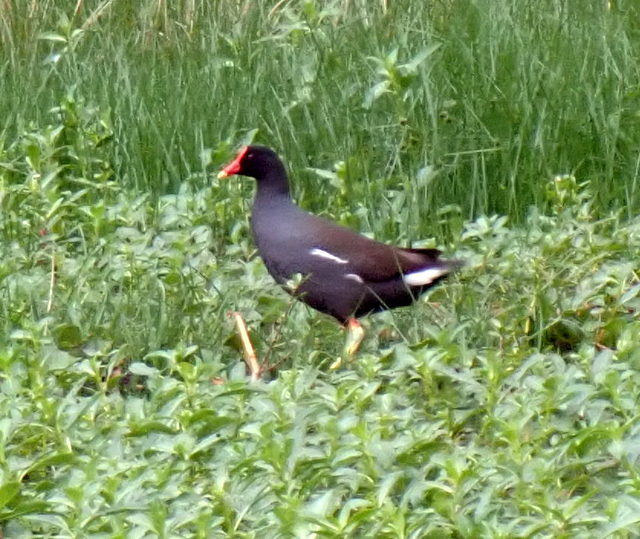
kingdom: Animalia
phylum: Chordata
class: Aves
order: Gruiformes
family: Rallidae
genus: Gallinula
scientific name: Gallinula chloropus
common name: Common moorhen
